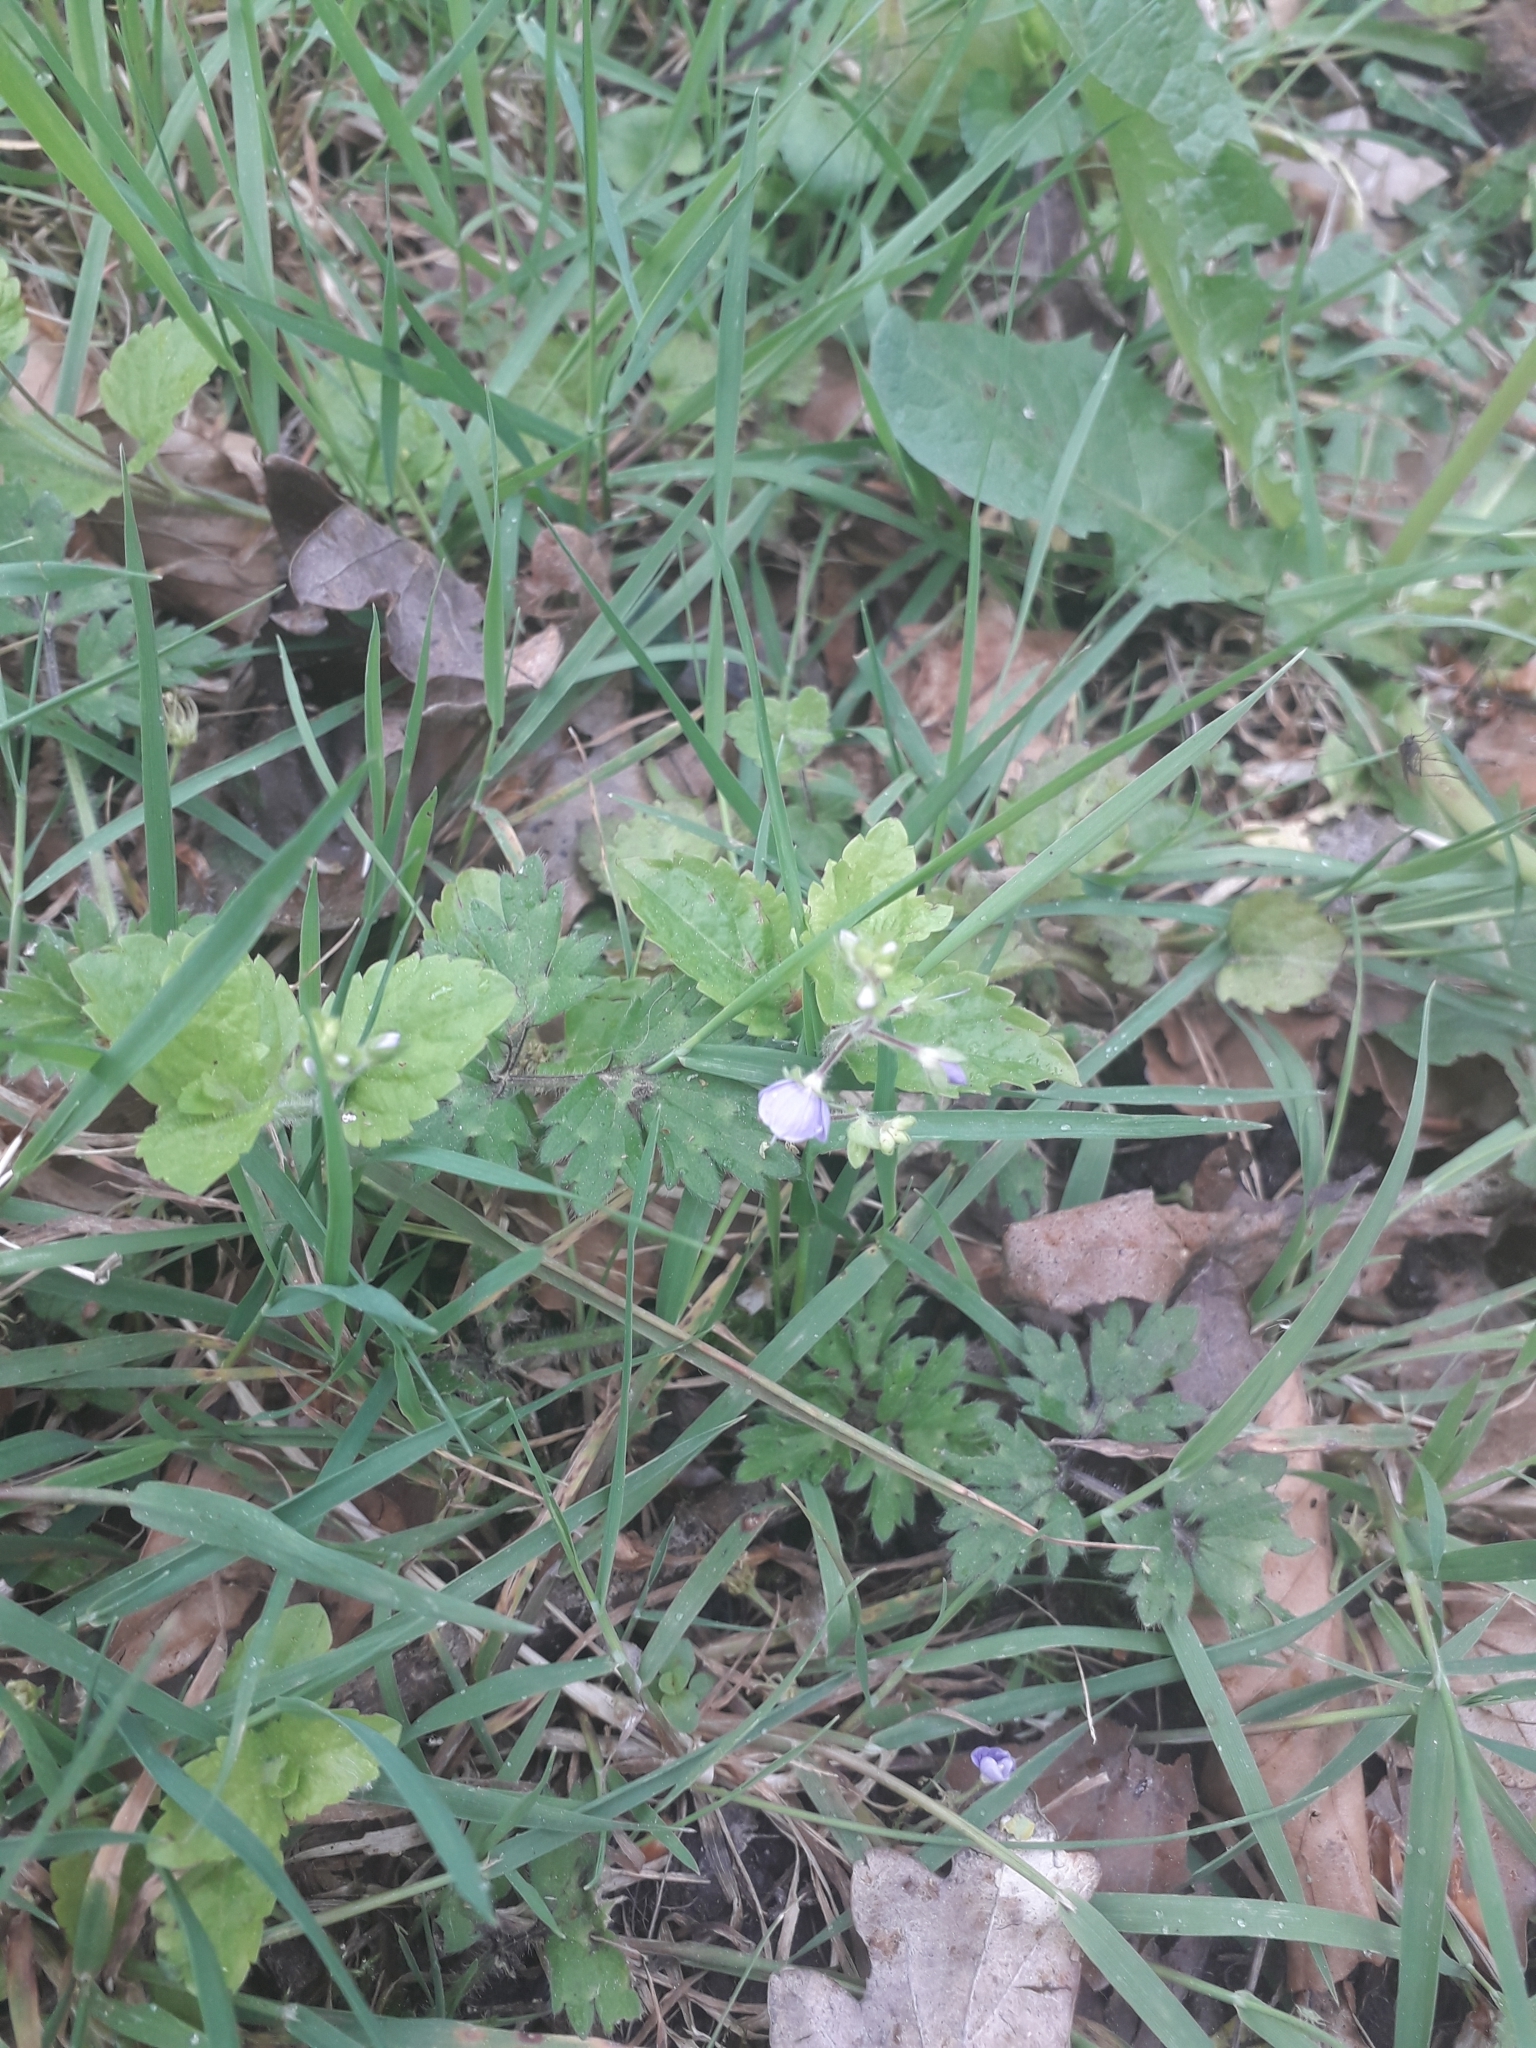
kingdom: Plantae
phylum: Tracheophyta
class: Magnoliopsida
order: Lamiales
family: Plantaginaceae
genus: Veronica
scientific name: Veronica montana
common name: Wood speedwell
